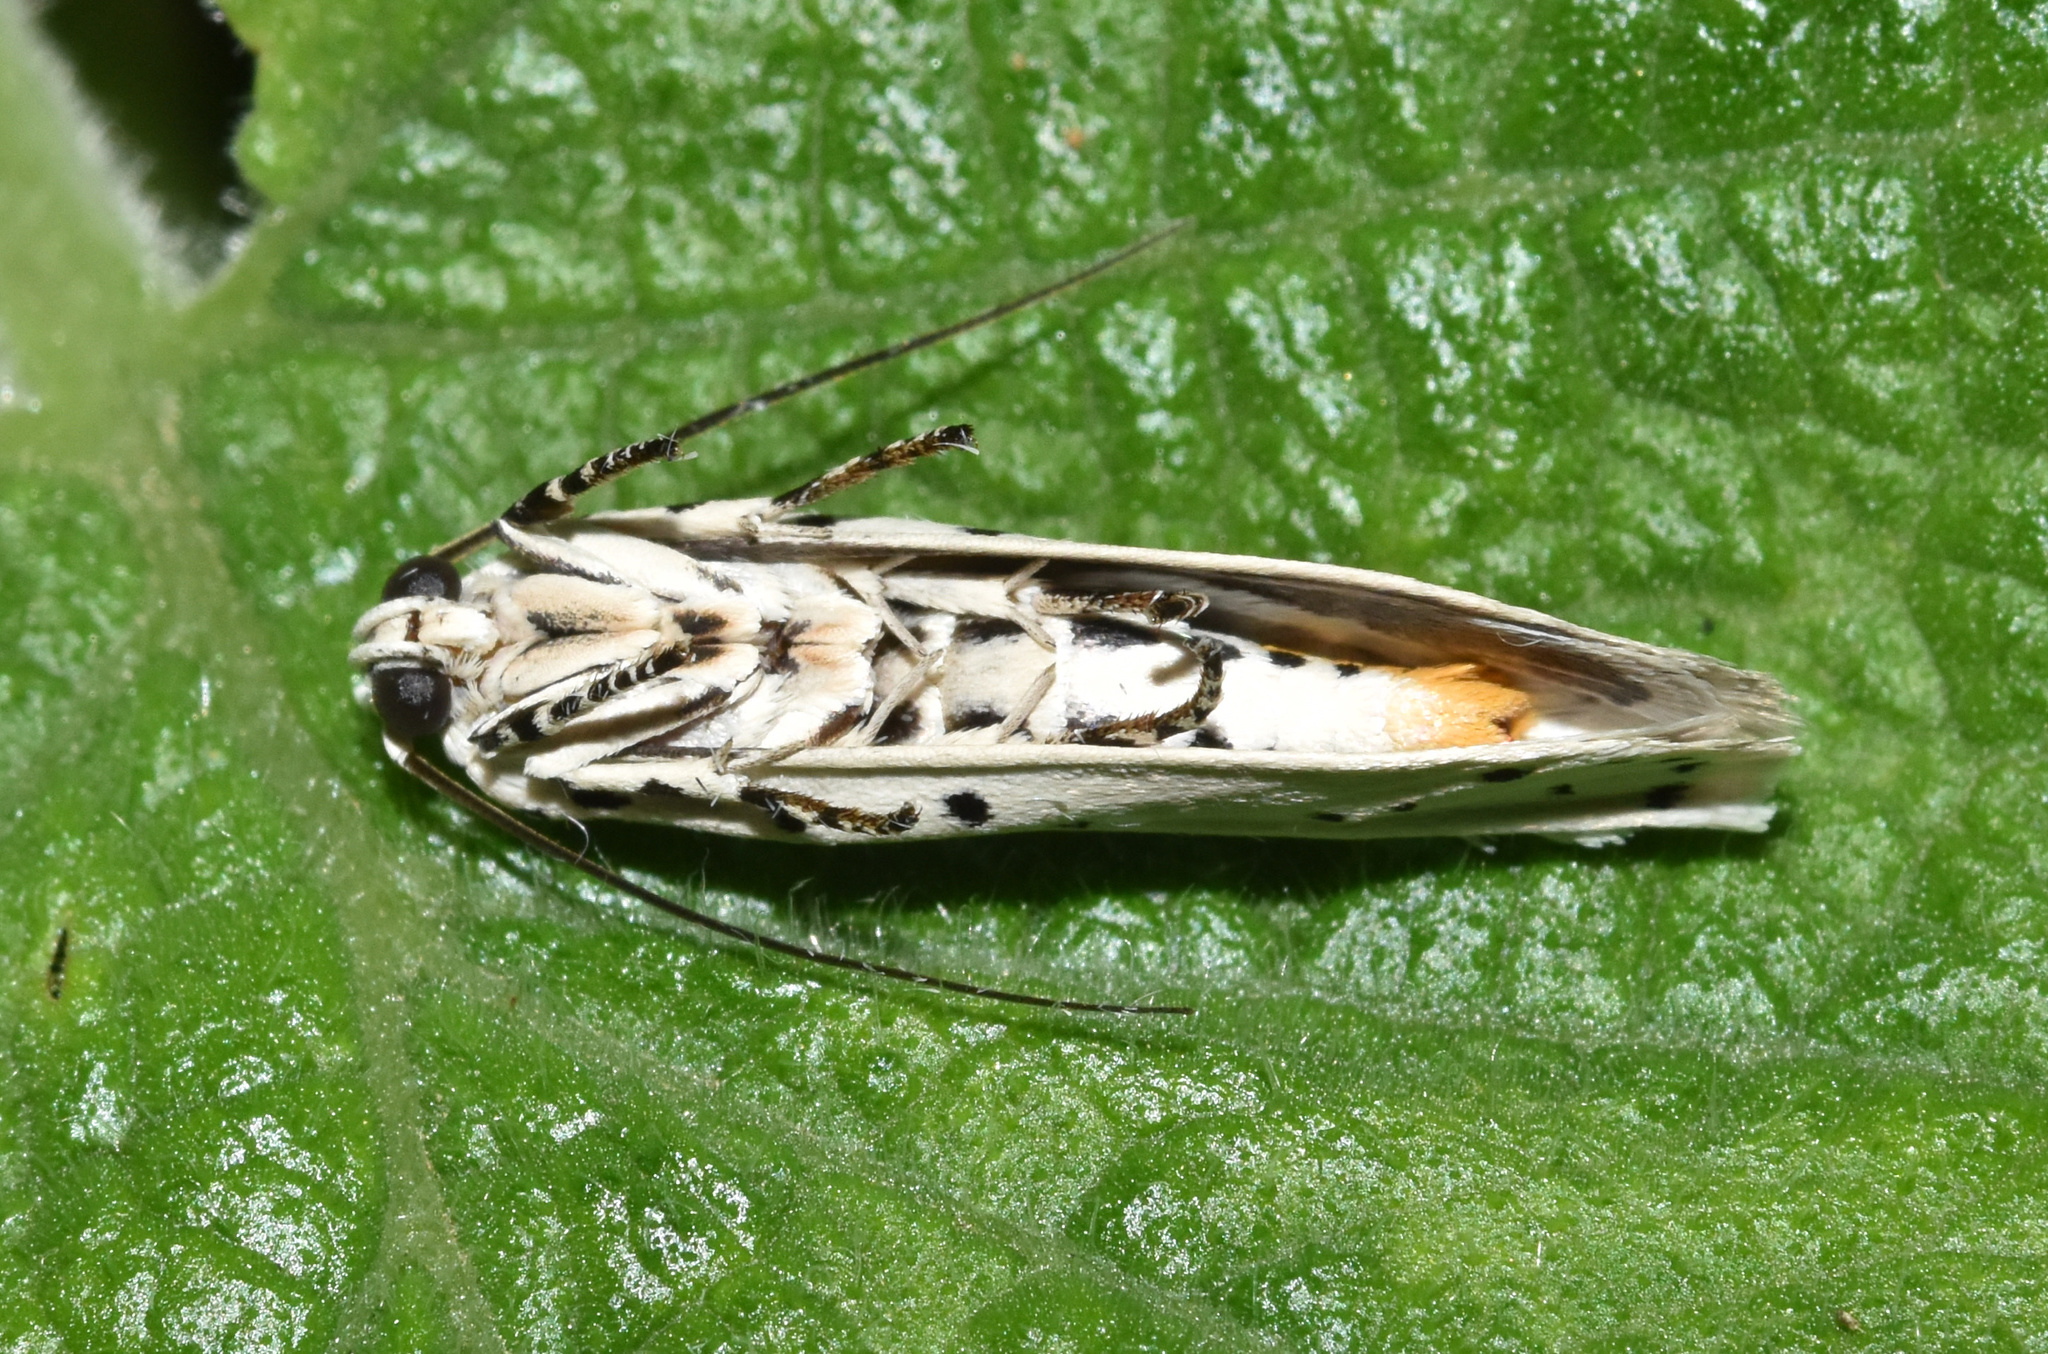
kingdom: Animalia
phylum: Arthropoda
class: Insecta
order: Lepidoptera
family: Ethmiidae
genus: Ethmia
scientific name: Ethmia coscineutis
